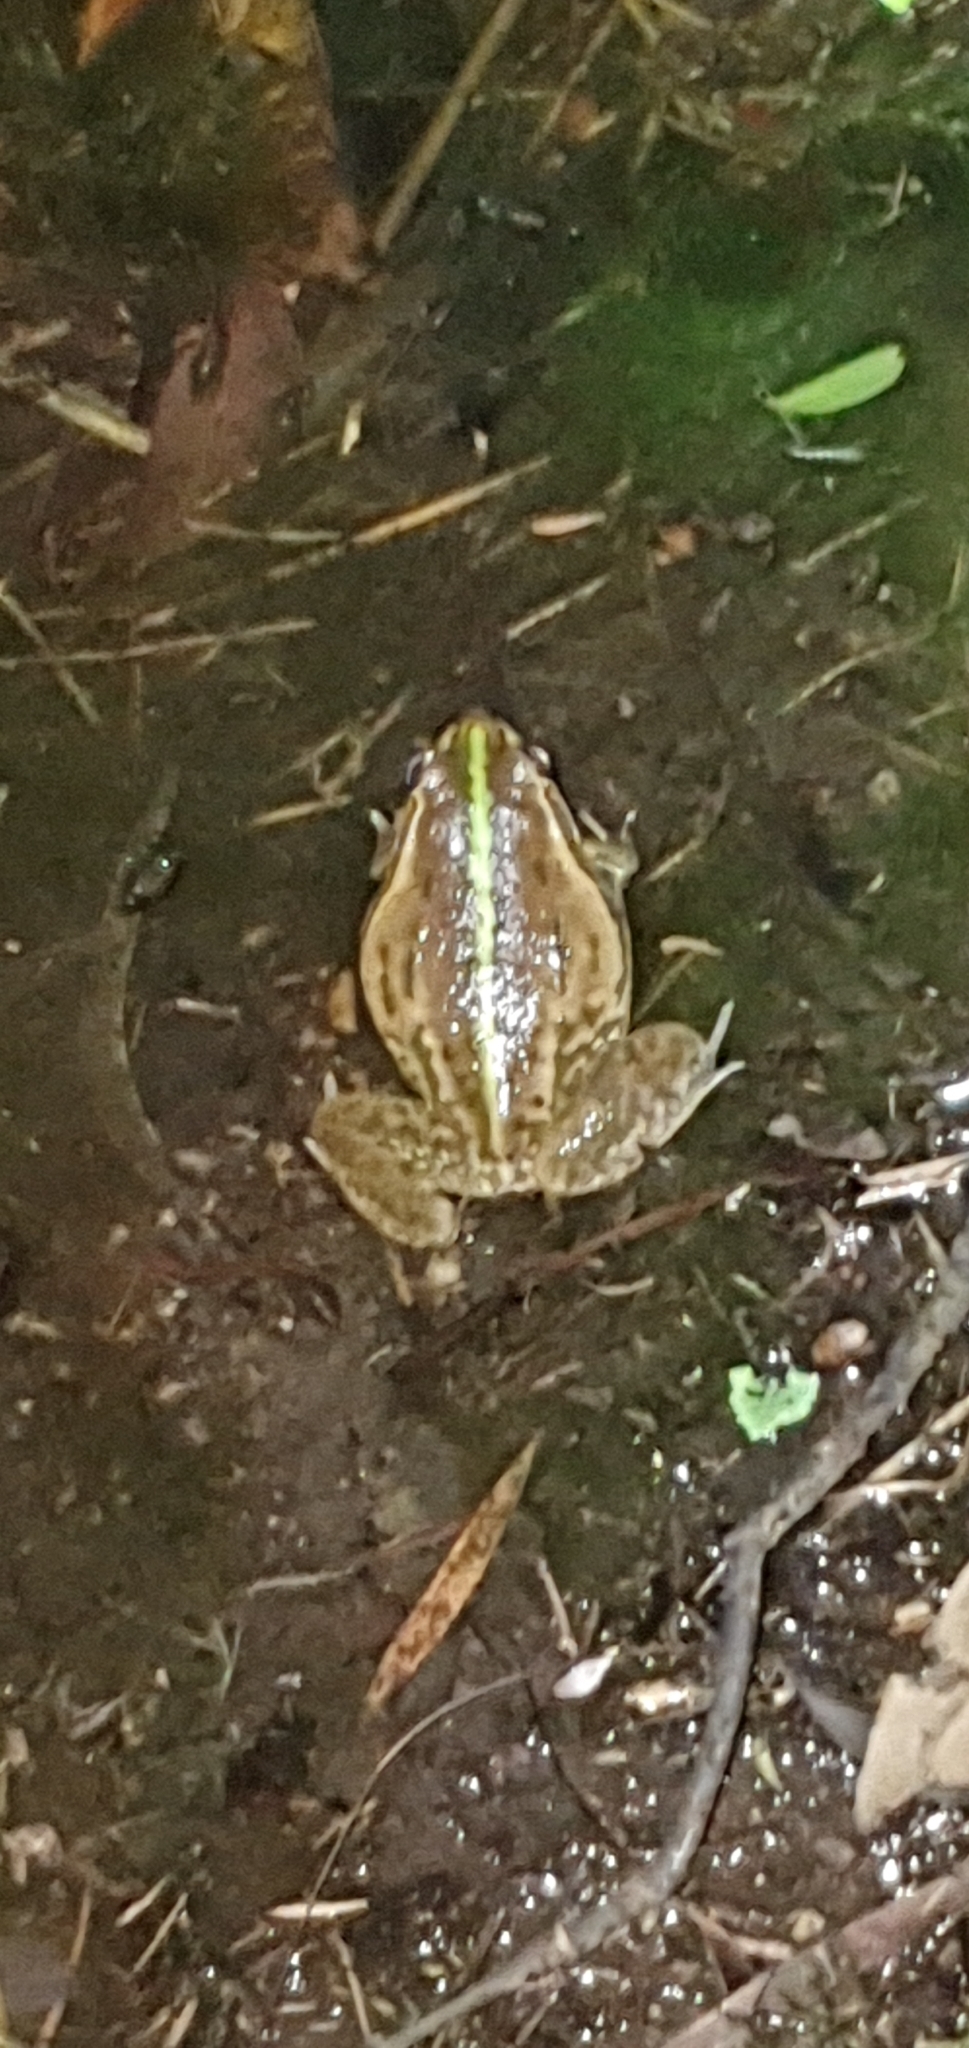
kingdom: Animalia
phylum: Chordata
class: Amphibia
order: Anura
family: Pelodryadidae
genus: Ranoidea
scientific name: Ranoidea alboguttata
